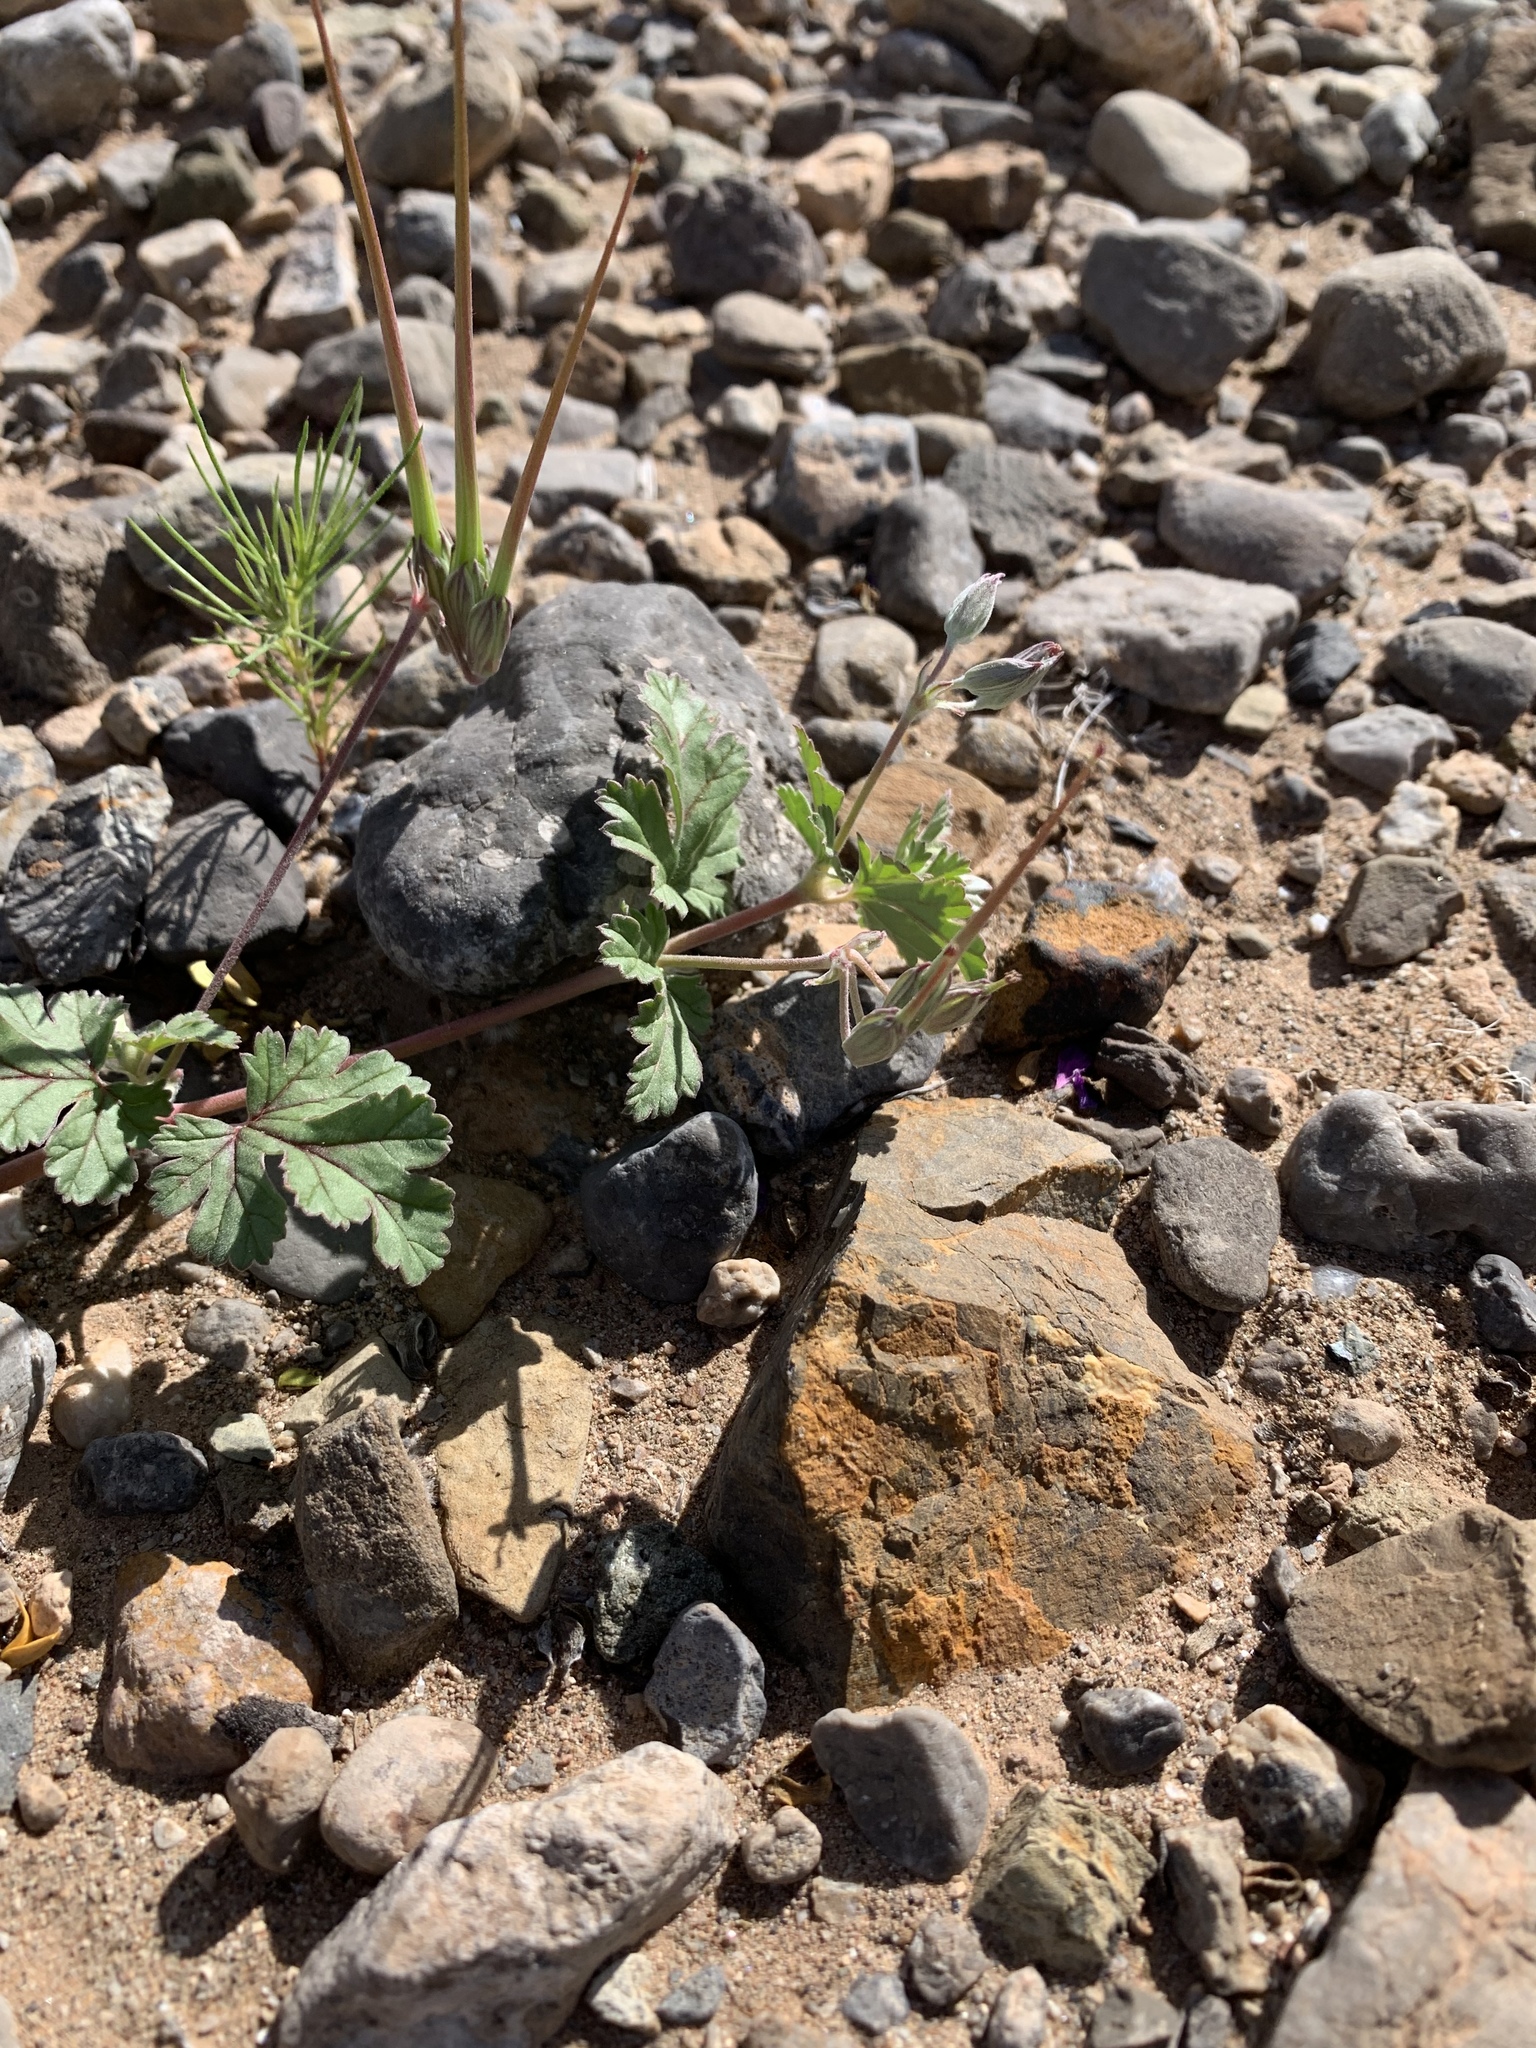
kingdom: Plantae
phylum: Tracheophyta
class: Magnoliopsida
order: Geraniales
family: Geraniaceae
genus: Erodium
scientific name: Erodium texanum
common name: Texas stork's-bill
